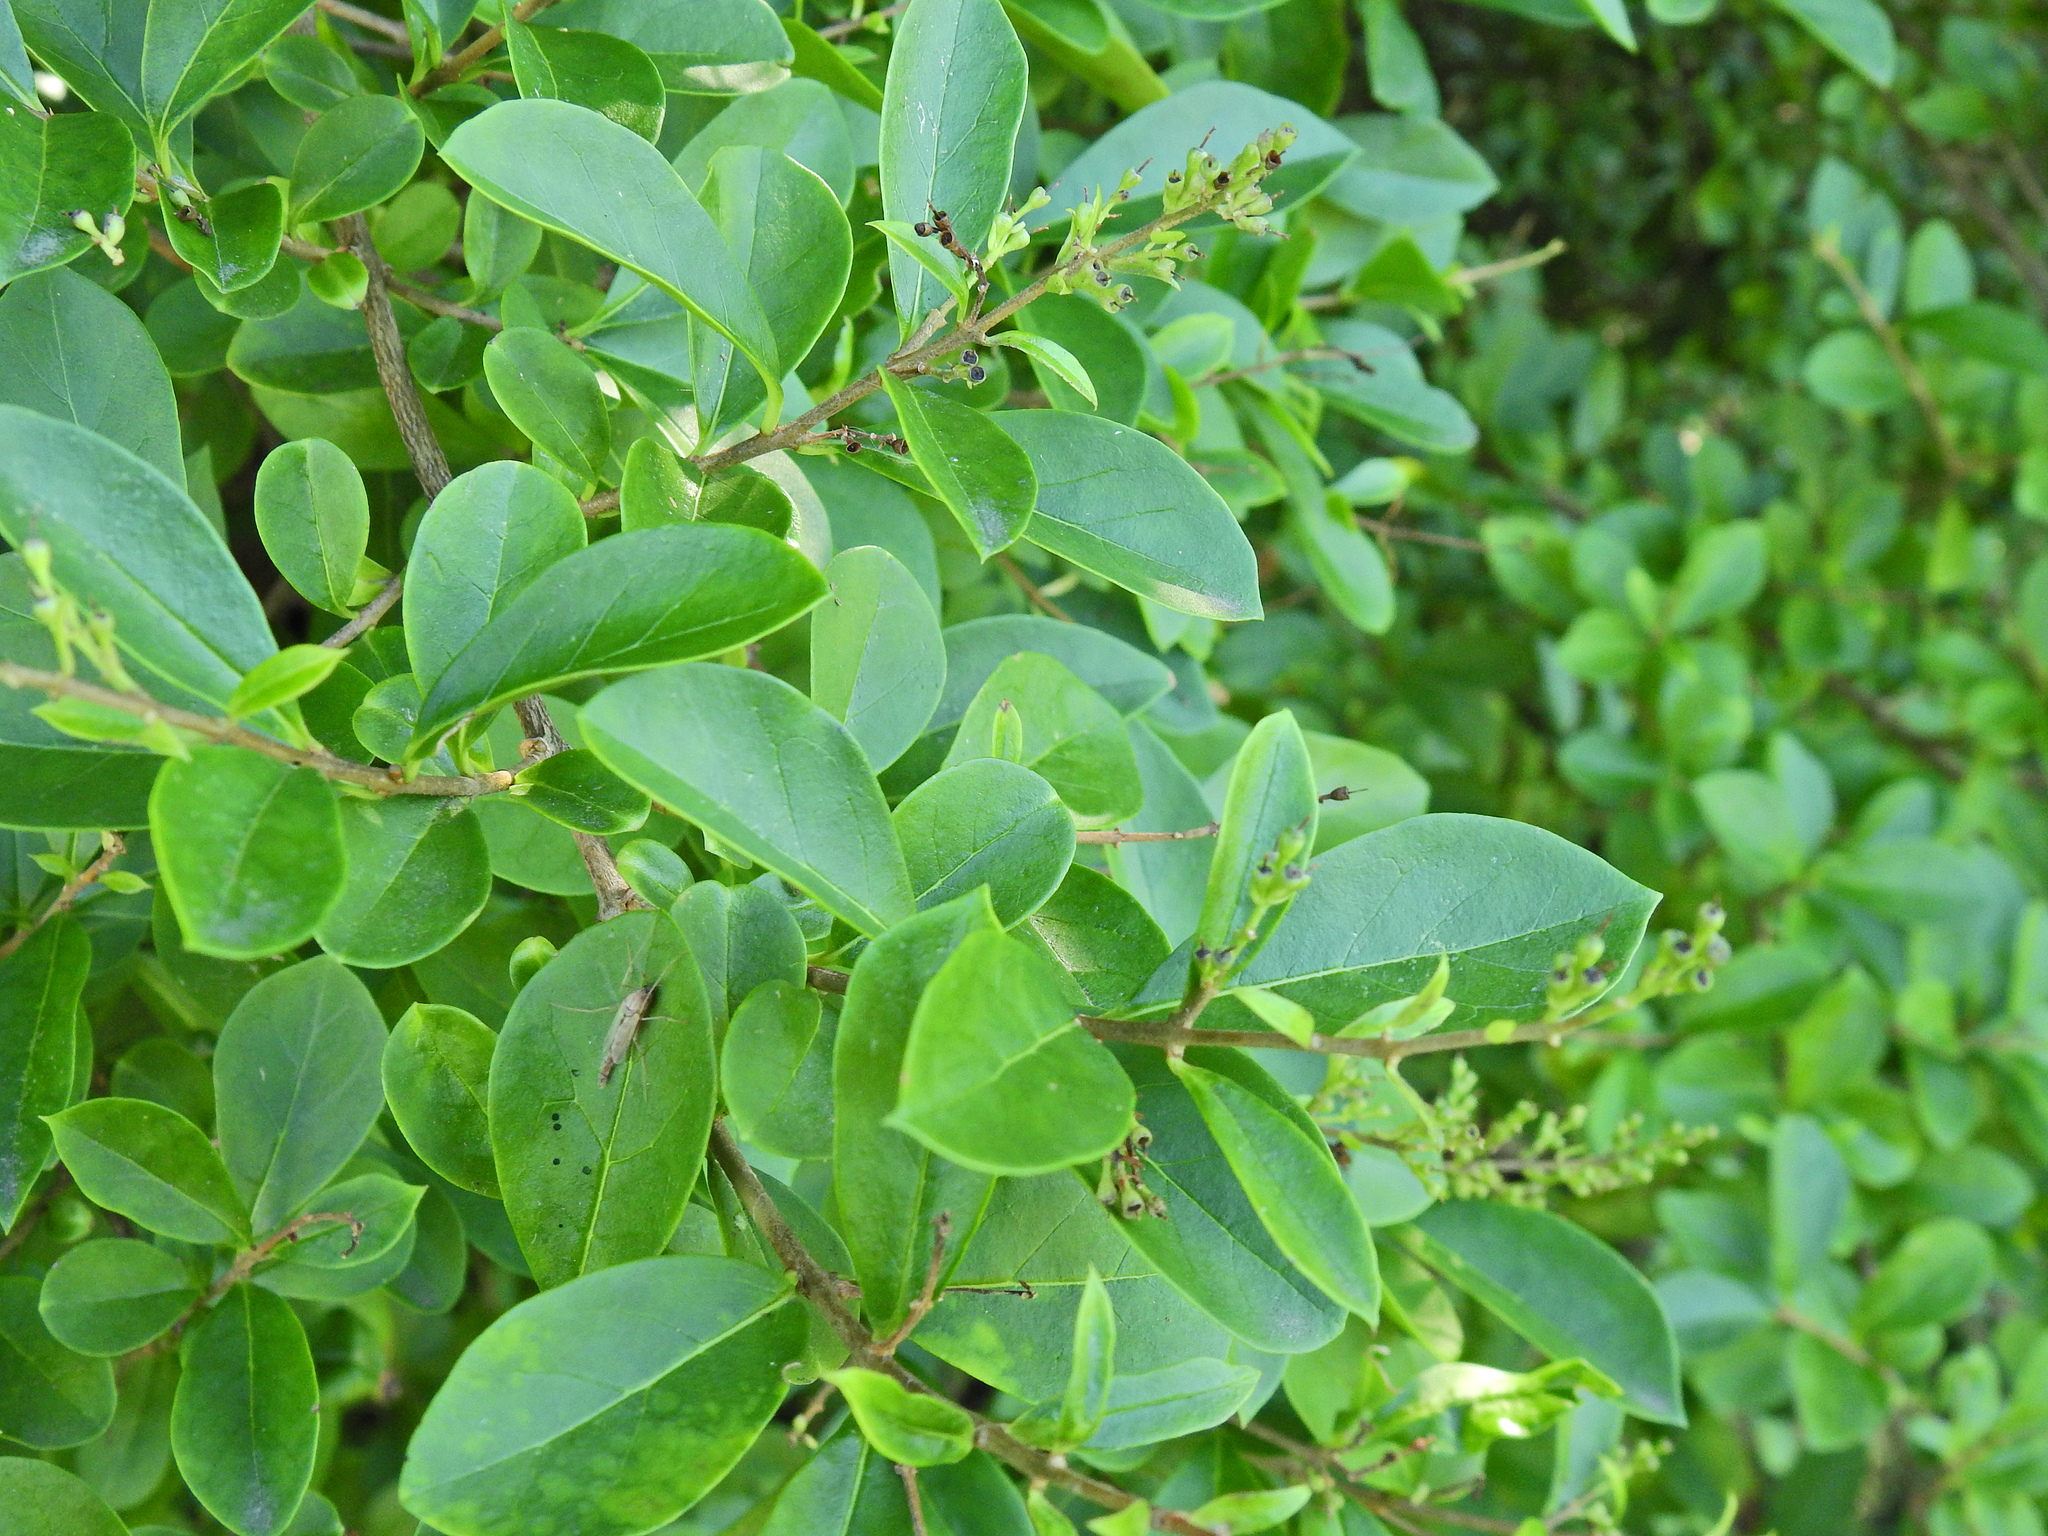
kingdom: Plantae
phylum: Tracheophyta
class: Magnoliopsida
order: Lamiales
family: Oleaceae
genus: Ligustrum
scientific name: Ligustrum ovalifolium
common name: California privet
